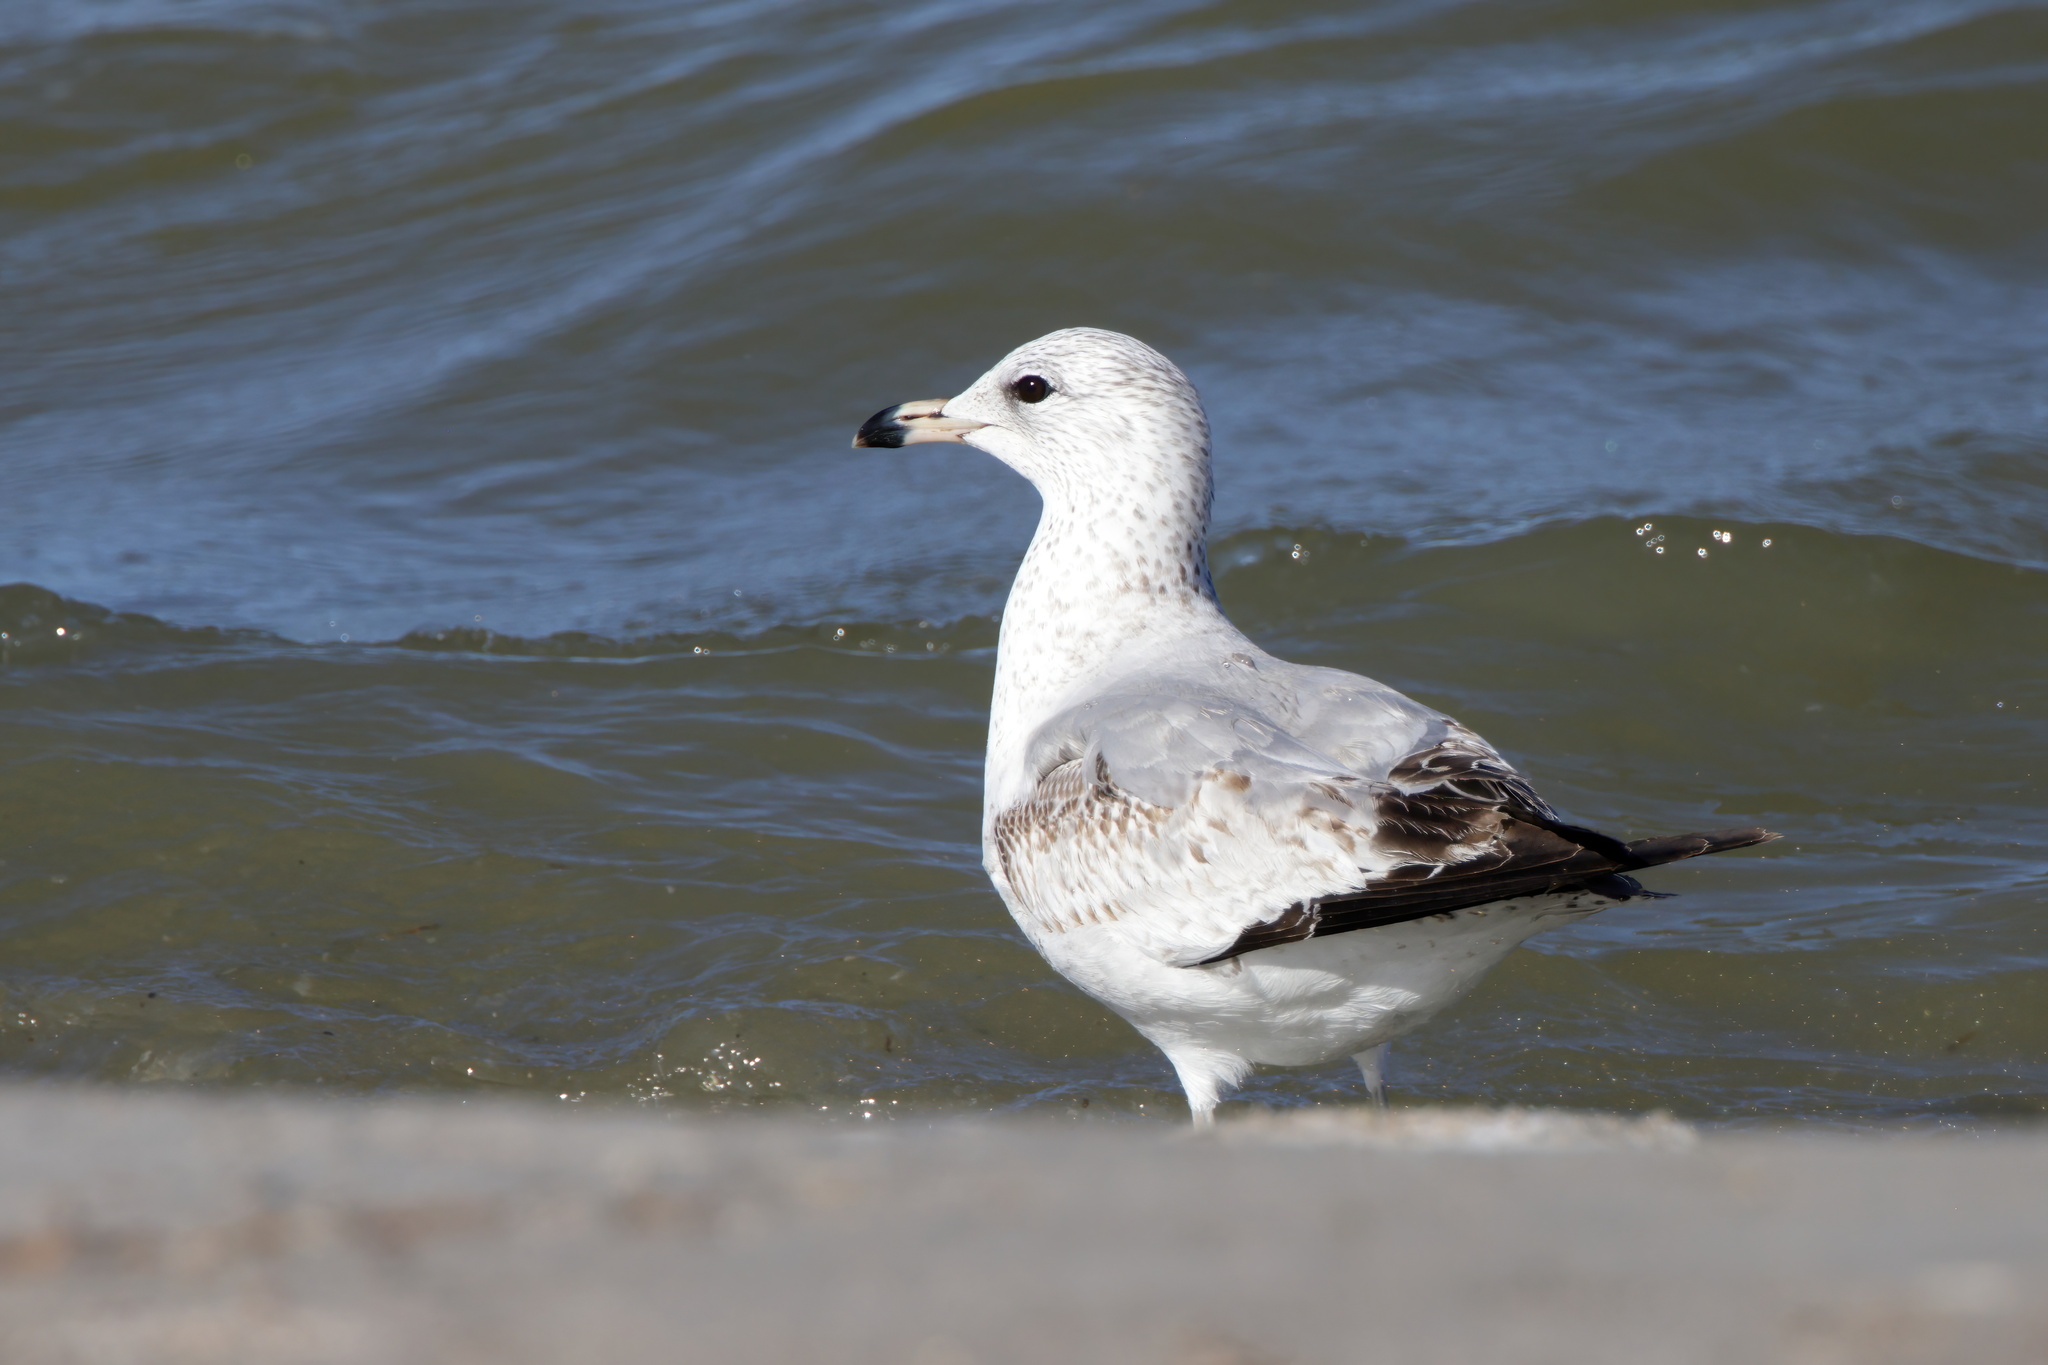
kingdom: Animalia
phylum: Chordata
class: Aves
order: Charadriiformes
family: Laridae
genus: Larus
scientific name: Larus delawarensis
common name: Ring-billed gull
